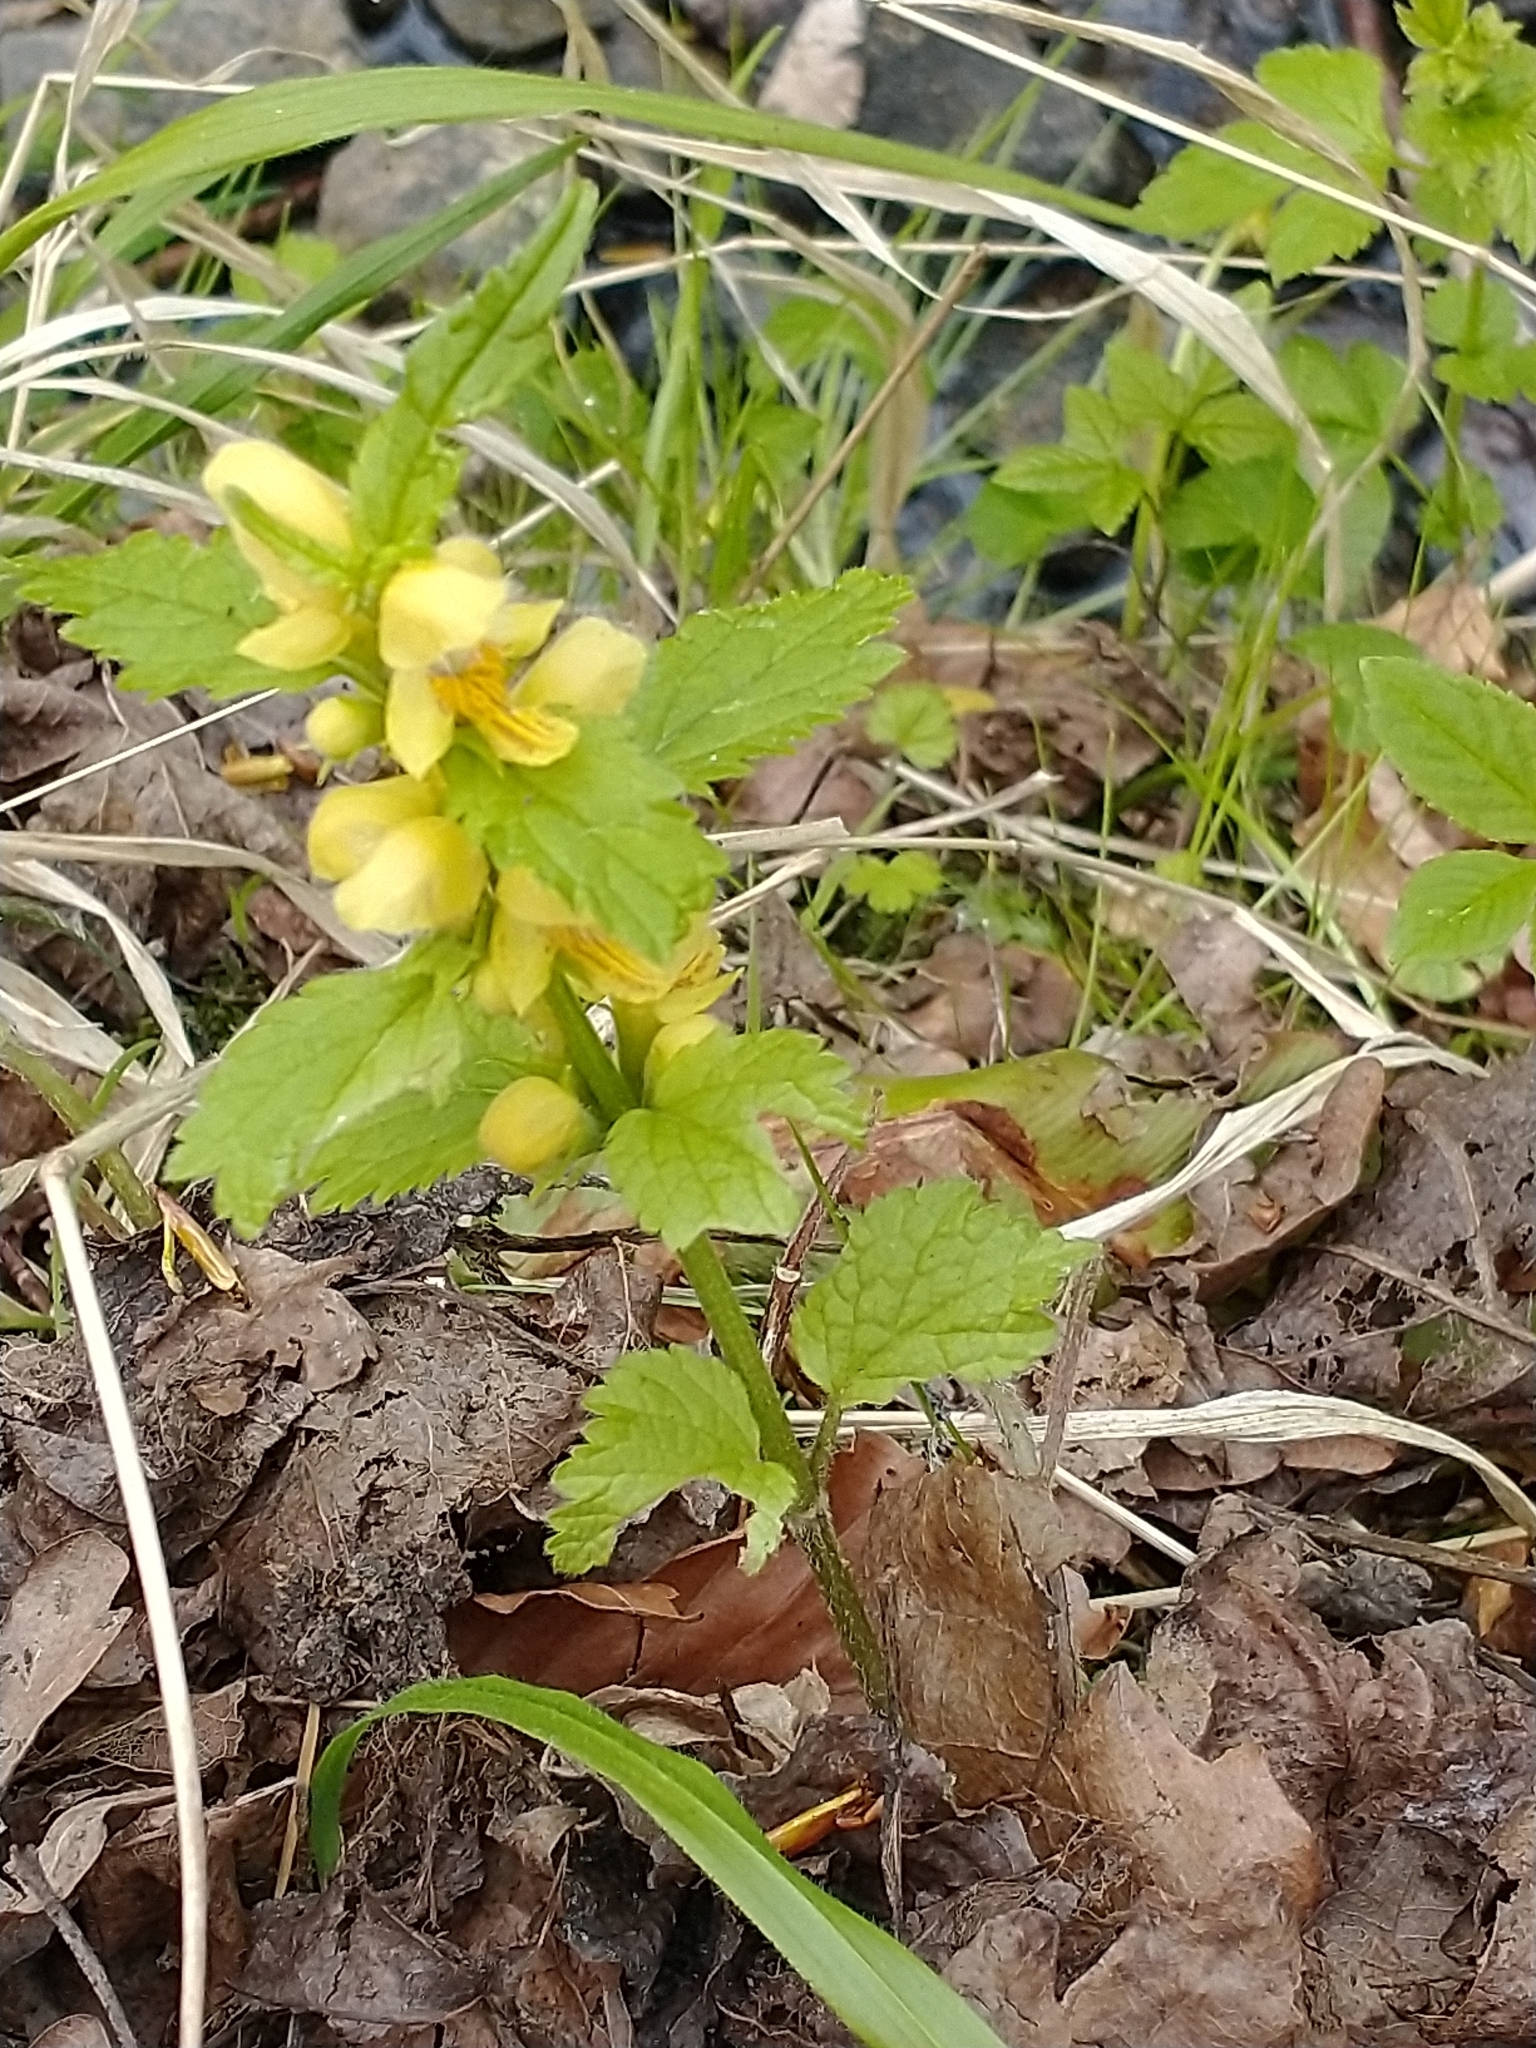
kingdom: Plantae
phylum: Tracheophyta
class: Magnoliopsida
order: Lamiales
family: Lamiaceae
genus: Lamium
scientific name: Lamium galeobdolon
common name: Yellow archangel
